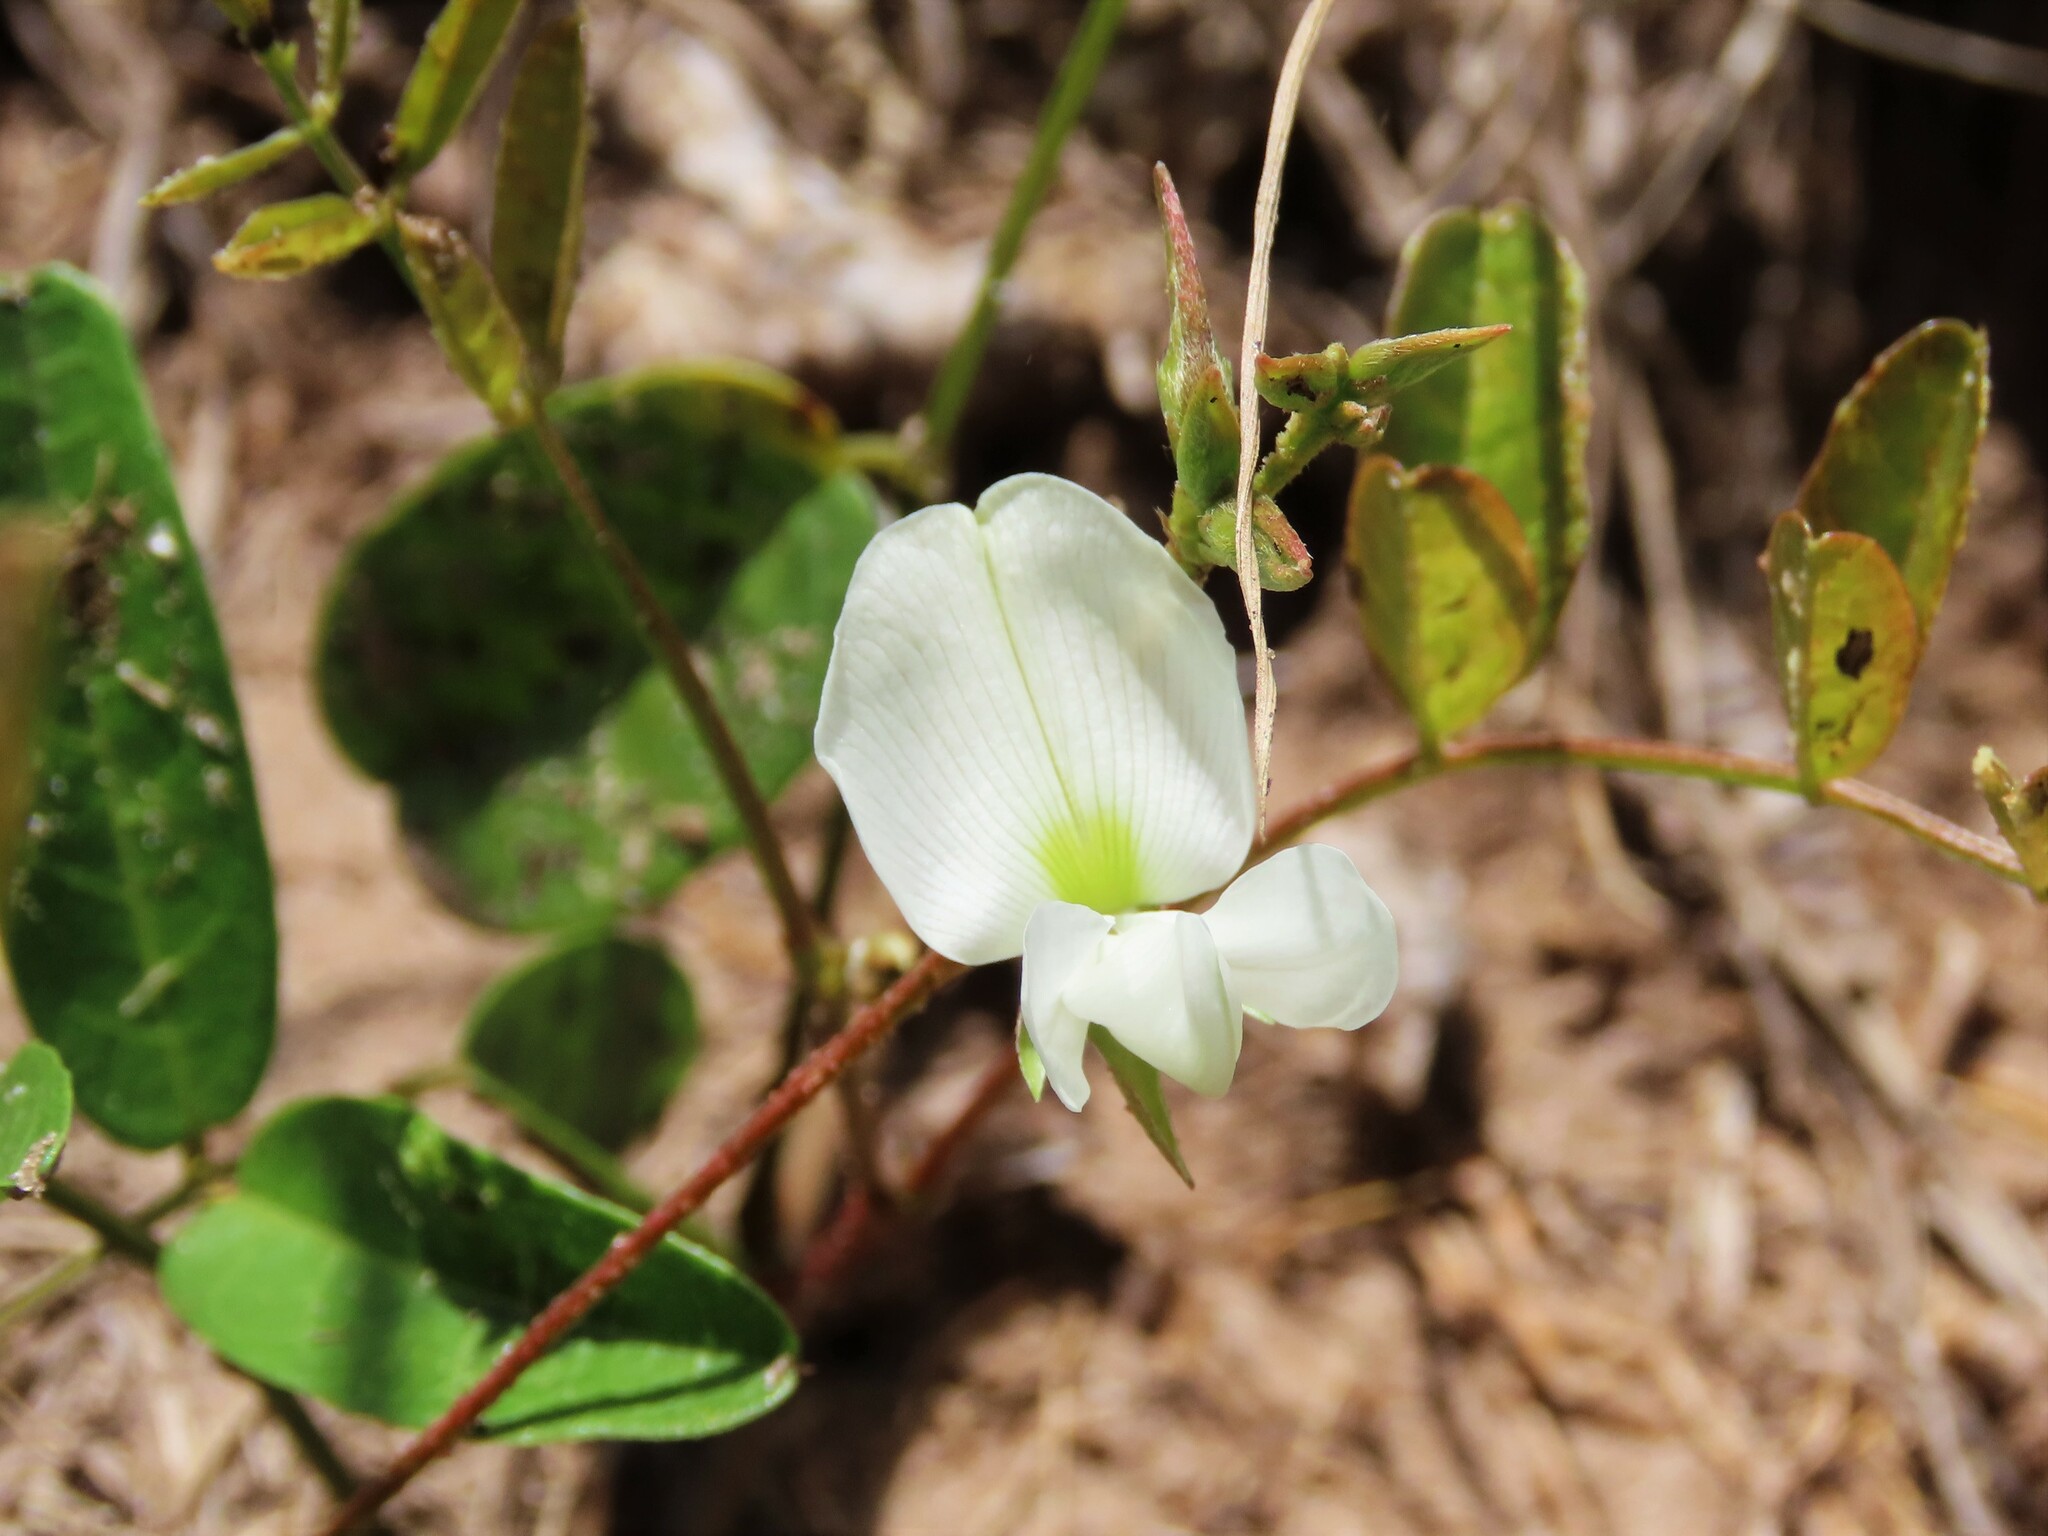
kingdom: Plantae
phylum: Tracheophyta
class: Magnoliopsida
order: Fabales
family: Fabaceae
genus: Galactia
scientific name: Galactia elliottii
